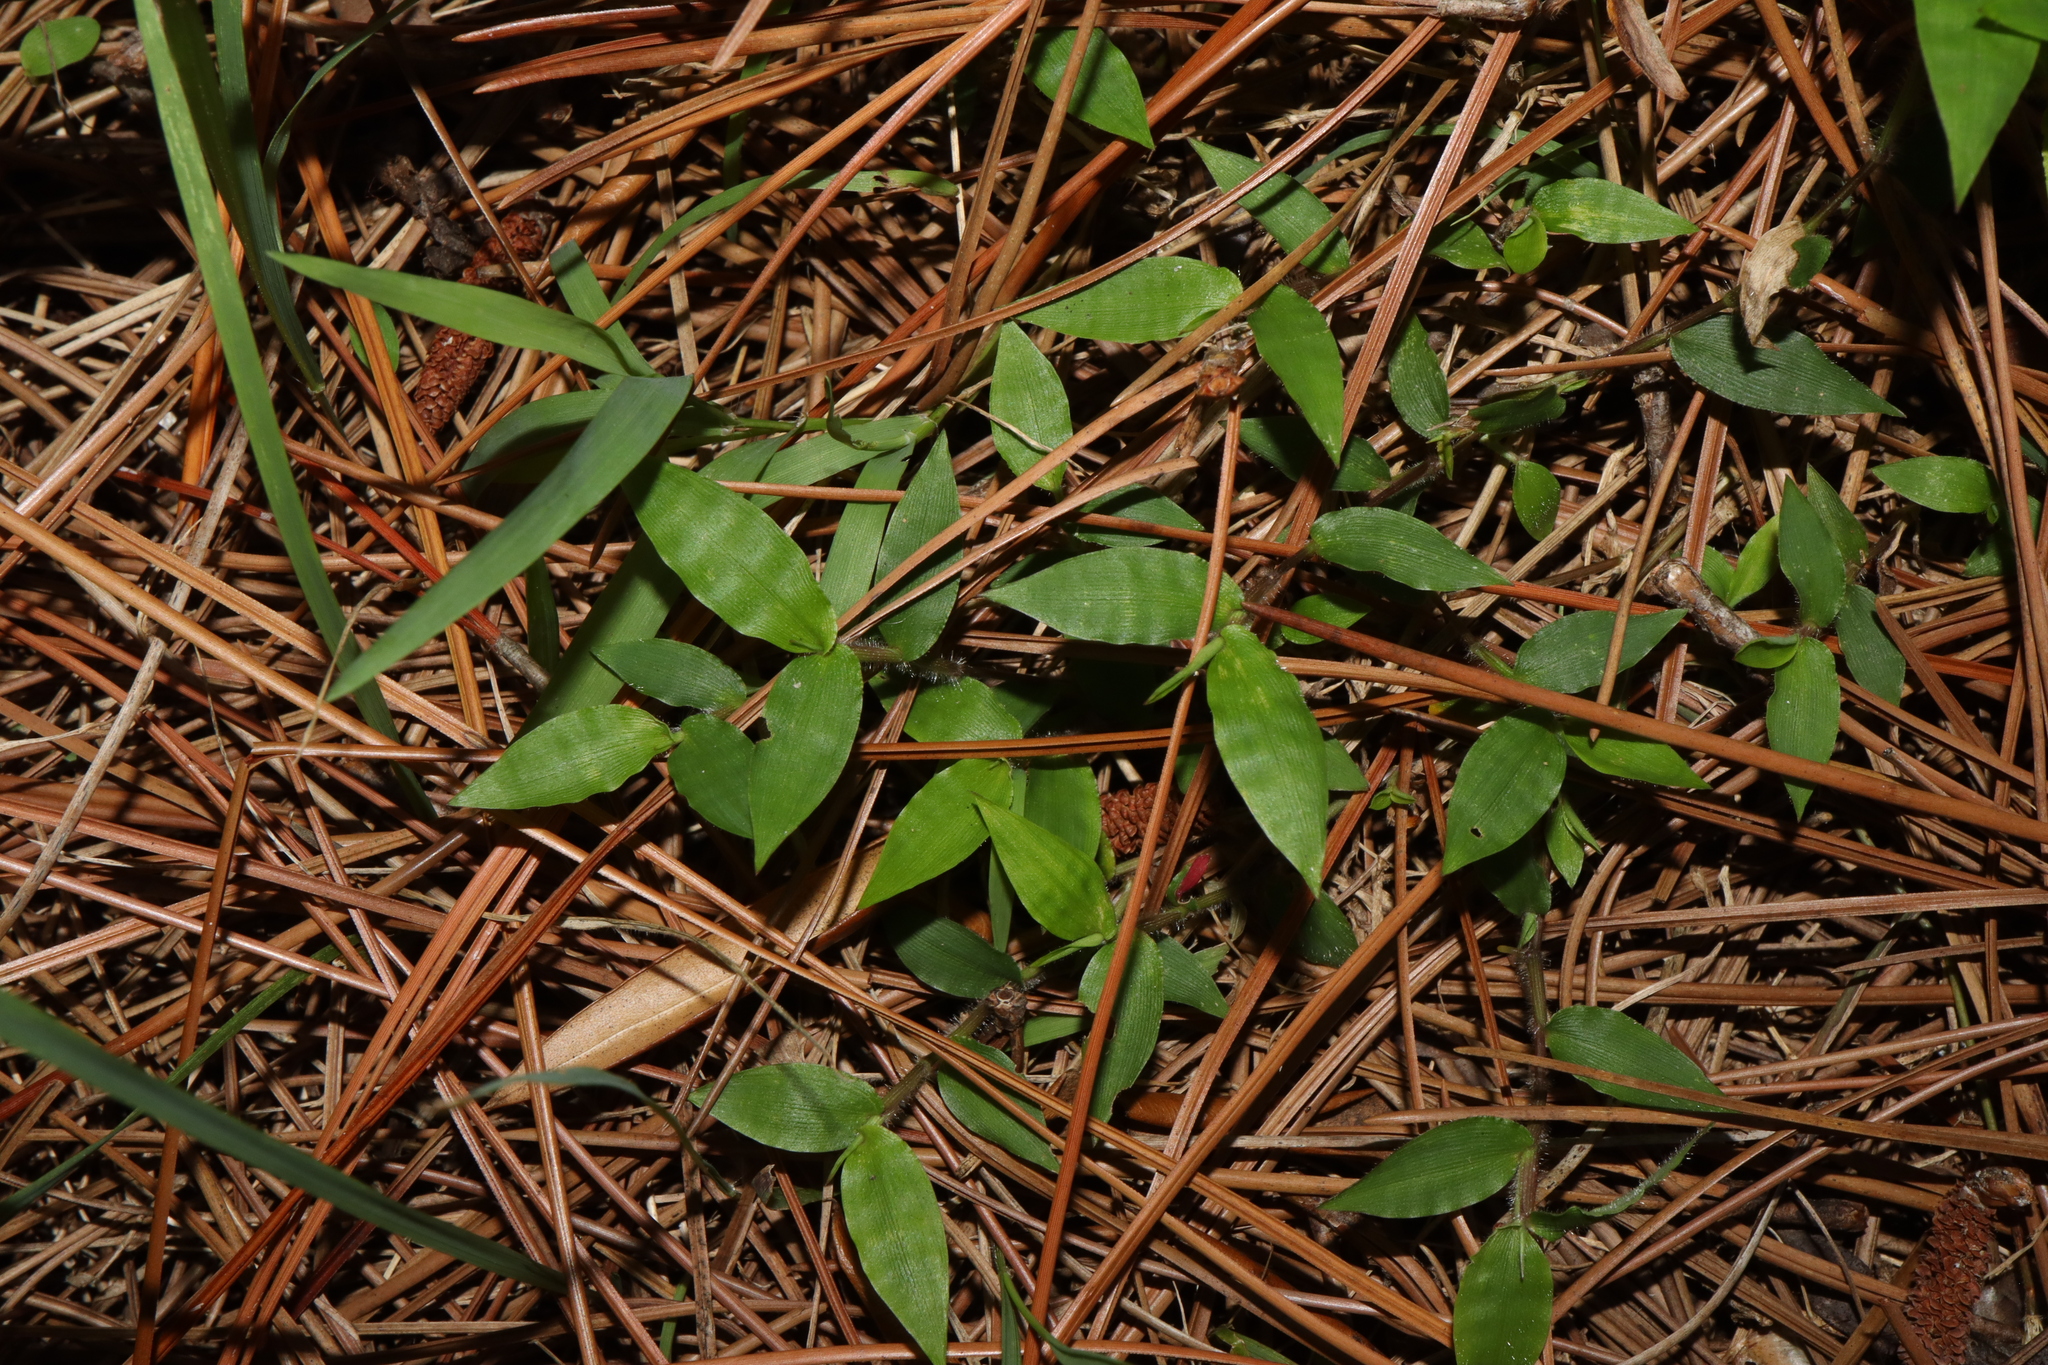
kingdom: Plantae
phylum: Tracheophyta
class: Liliopsida
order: Poales
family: Poaceae
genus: Oplismenus
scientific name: Oplismenus hirtellus
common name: Basketgrass
